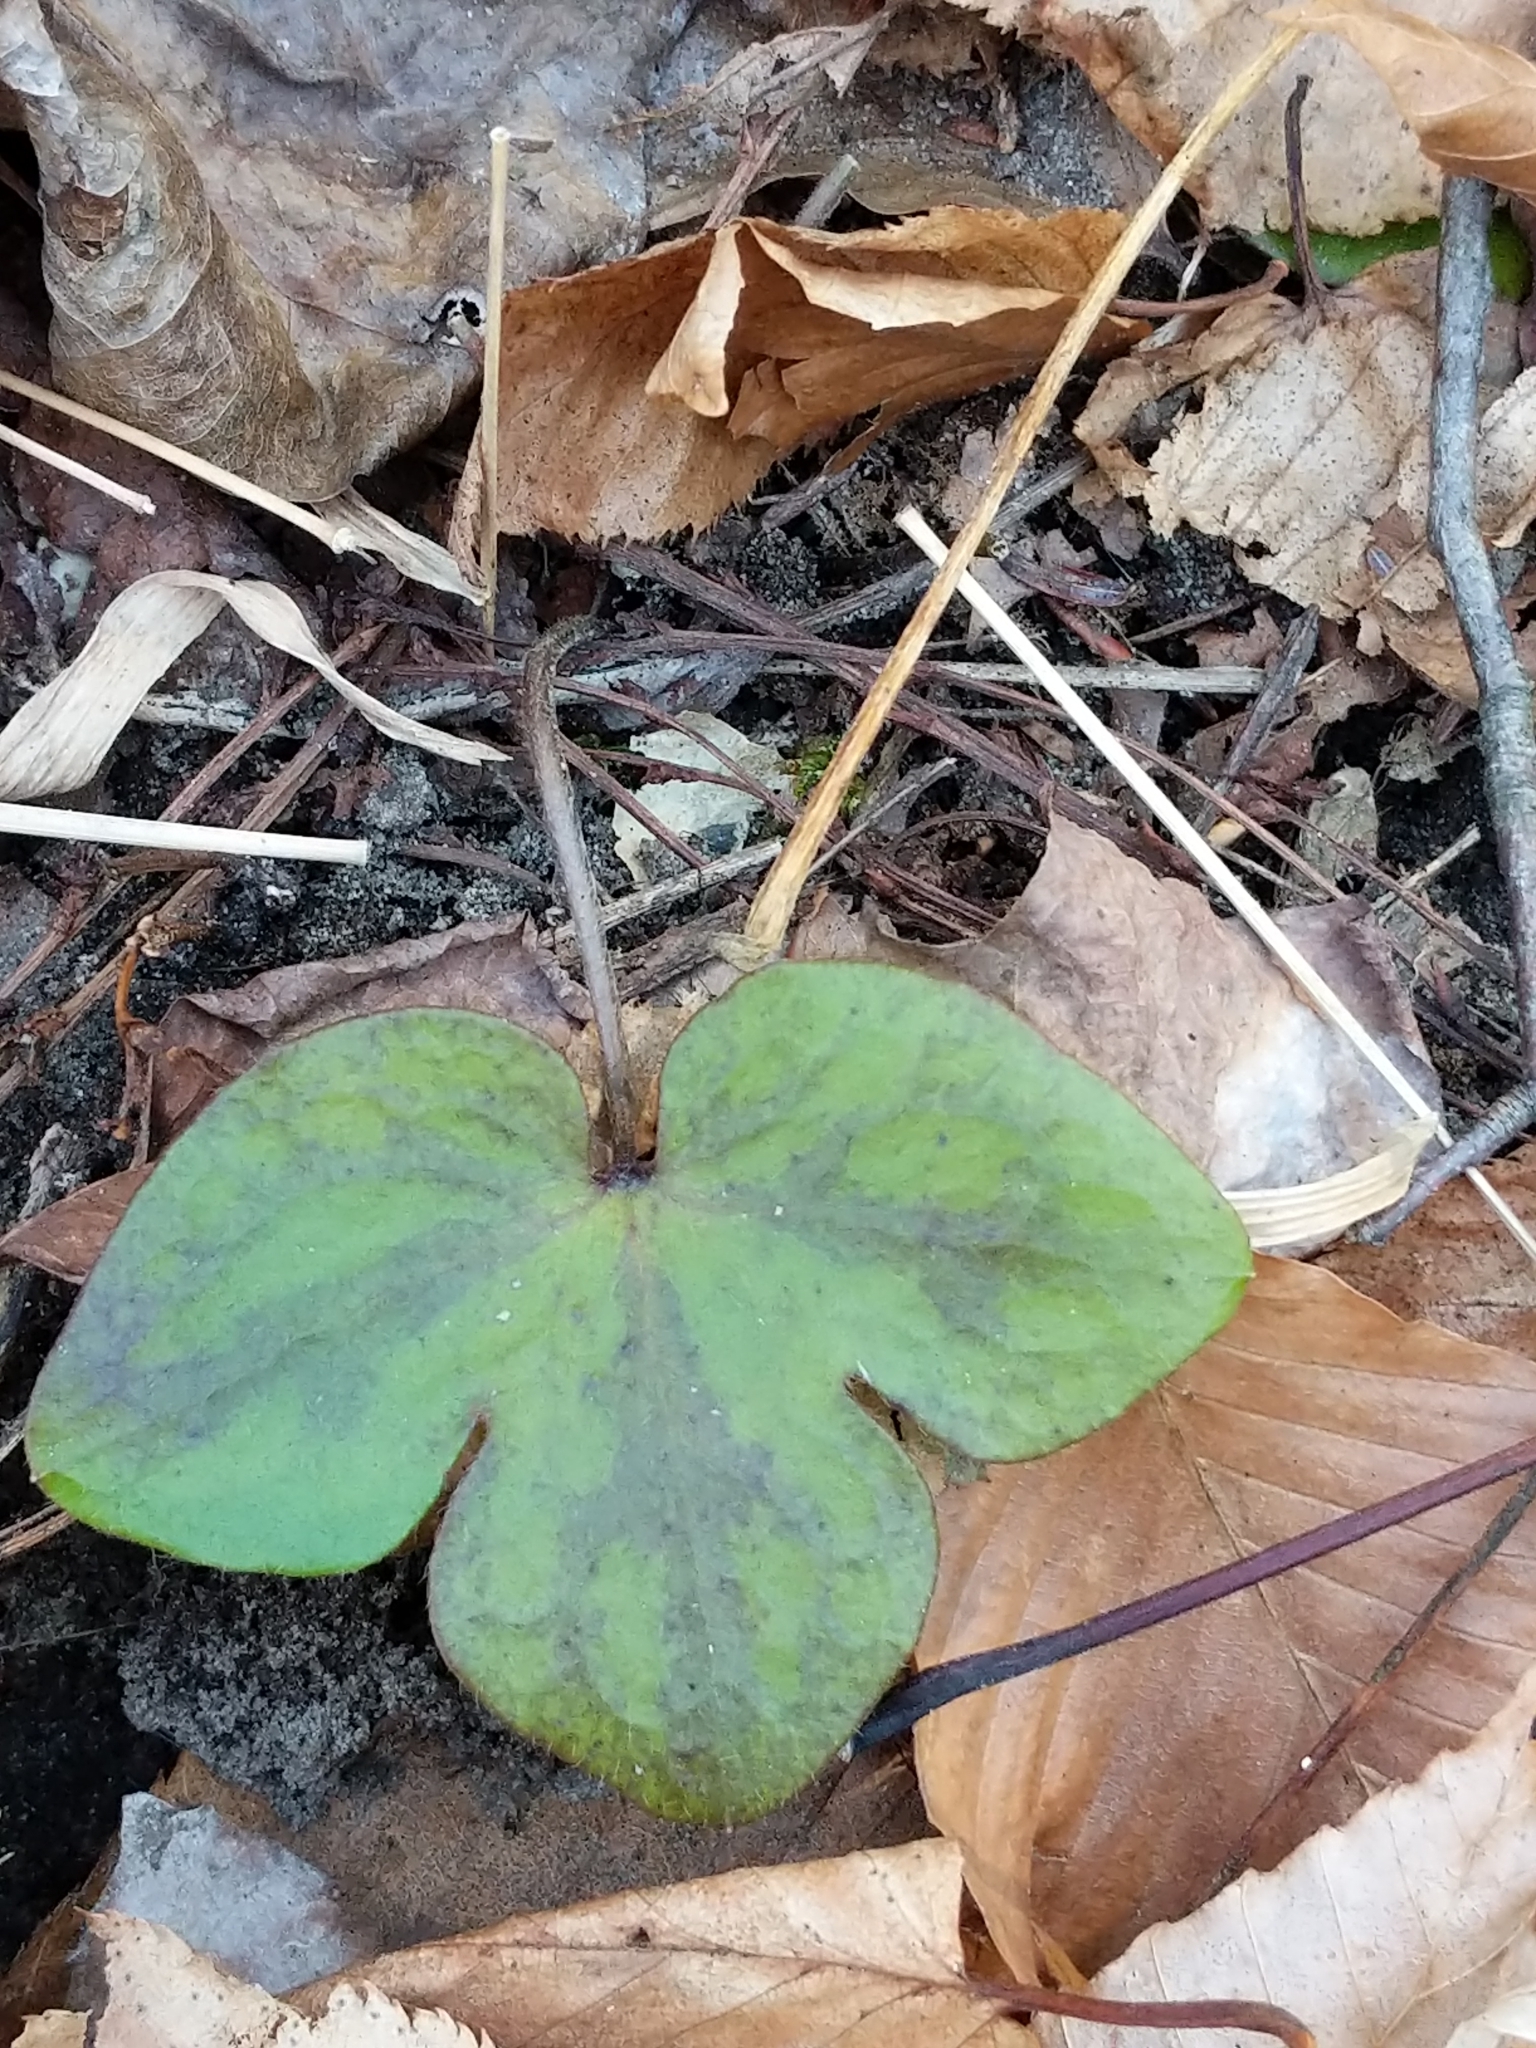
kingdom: Plantae
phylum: Tracheophyta
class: Magnoliopsida
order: Ranunculales
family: Ranunculaceae
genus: Hepatica
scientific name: Hepatica americana
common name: American hepatica
